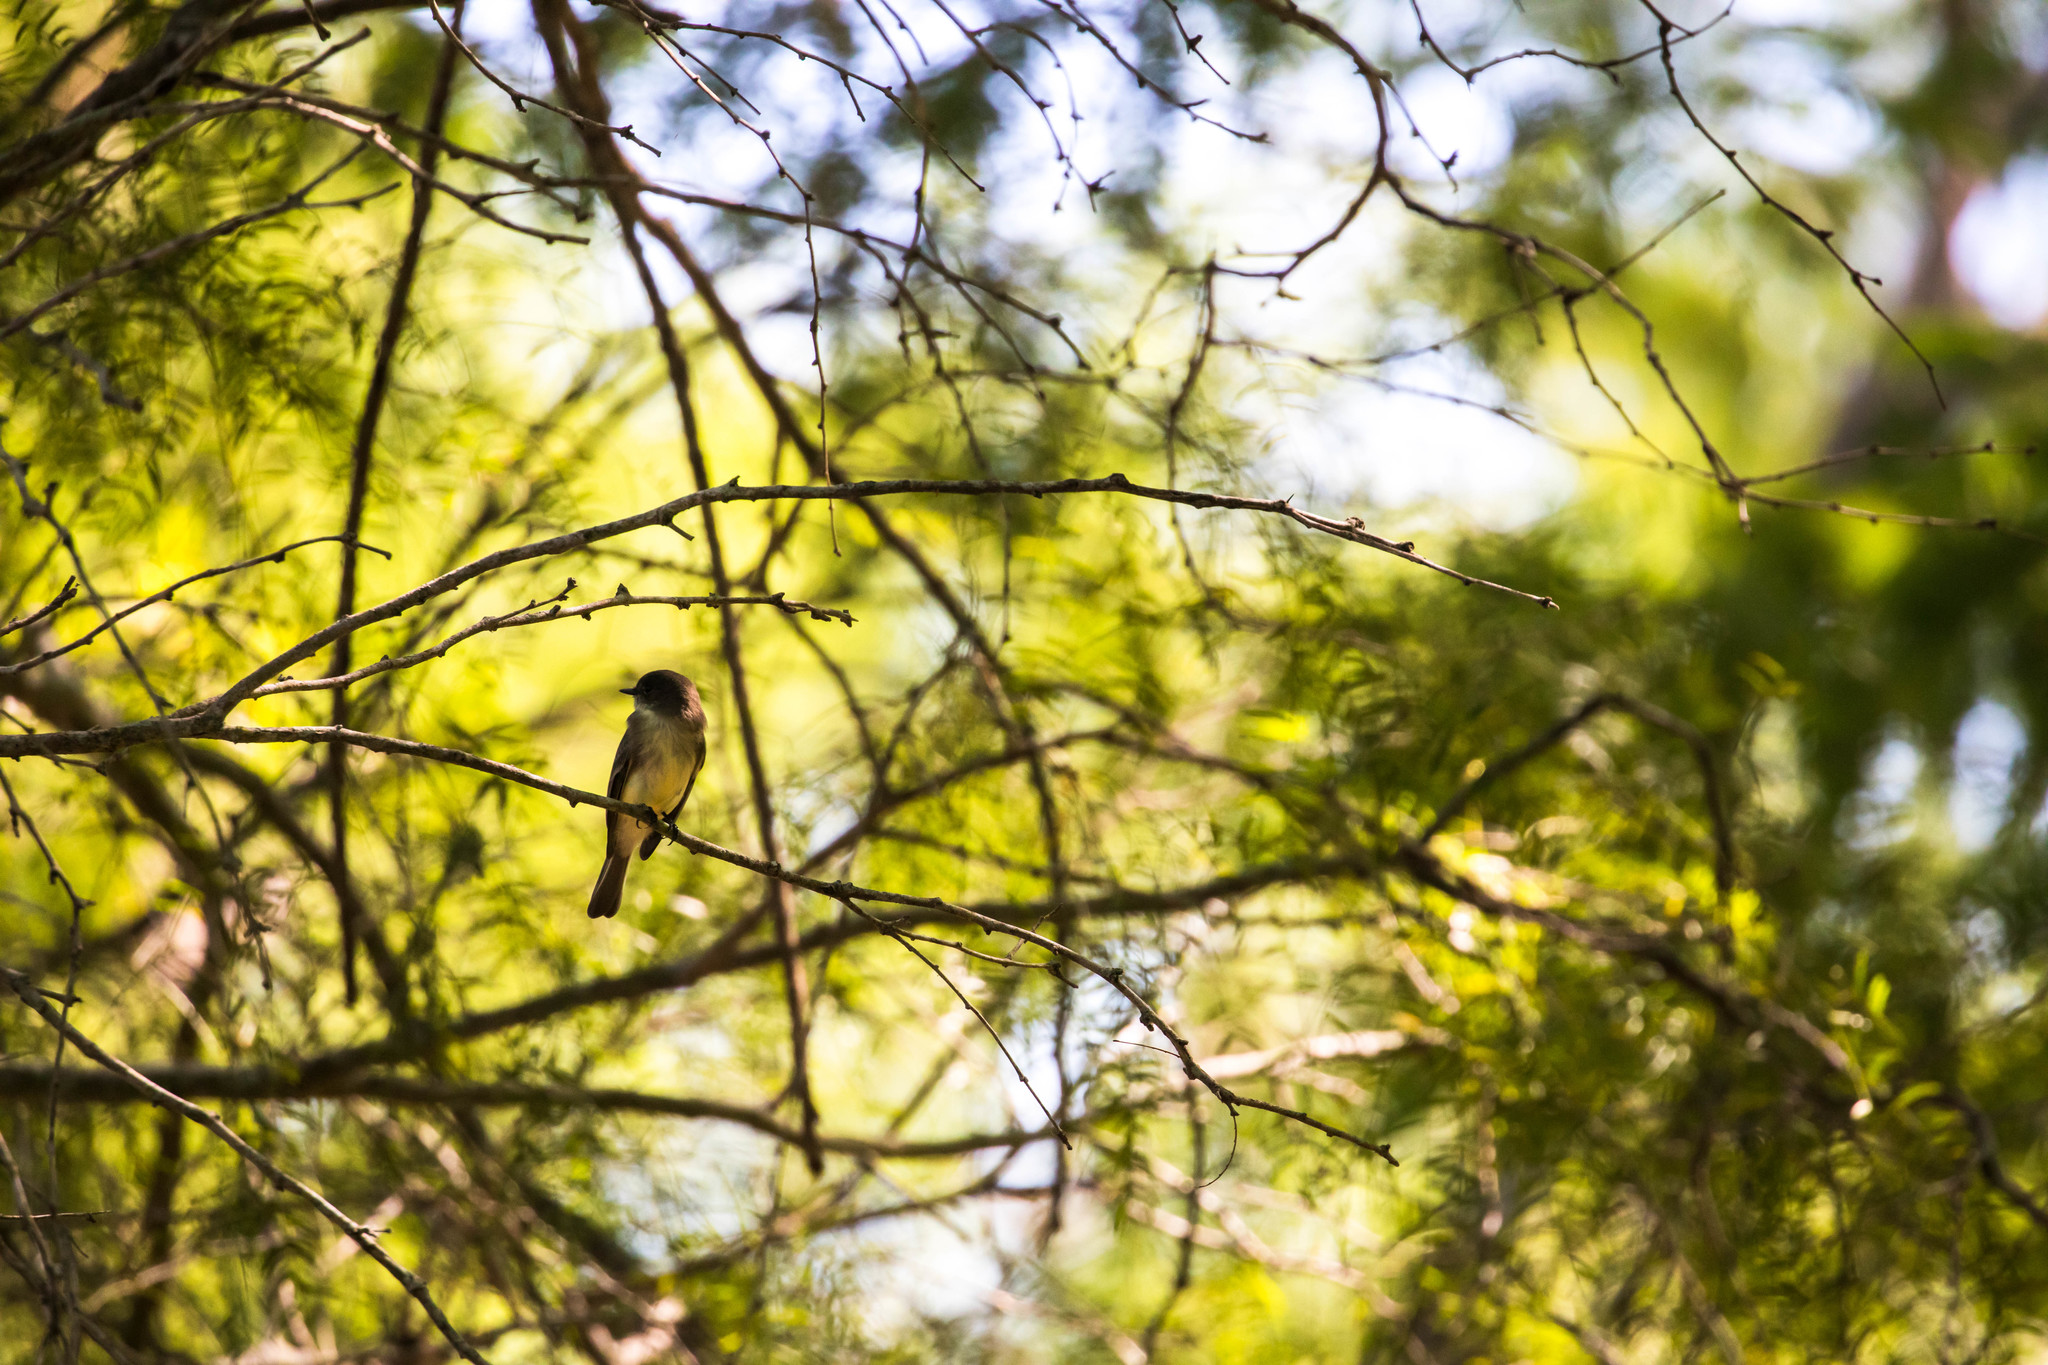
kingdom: Animalia
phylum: Chordata
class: Aves
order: Passeriformes
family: Tyrannidae
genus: Sayornis
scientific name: Sayornis phoebe
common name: Eastern phoebe
